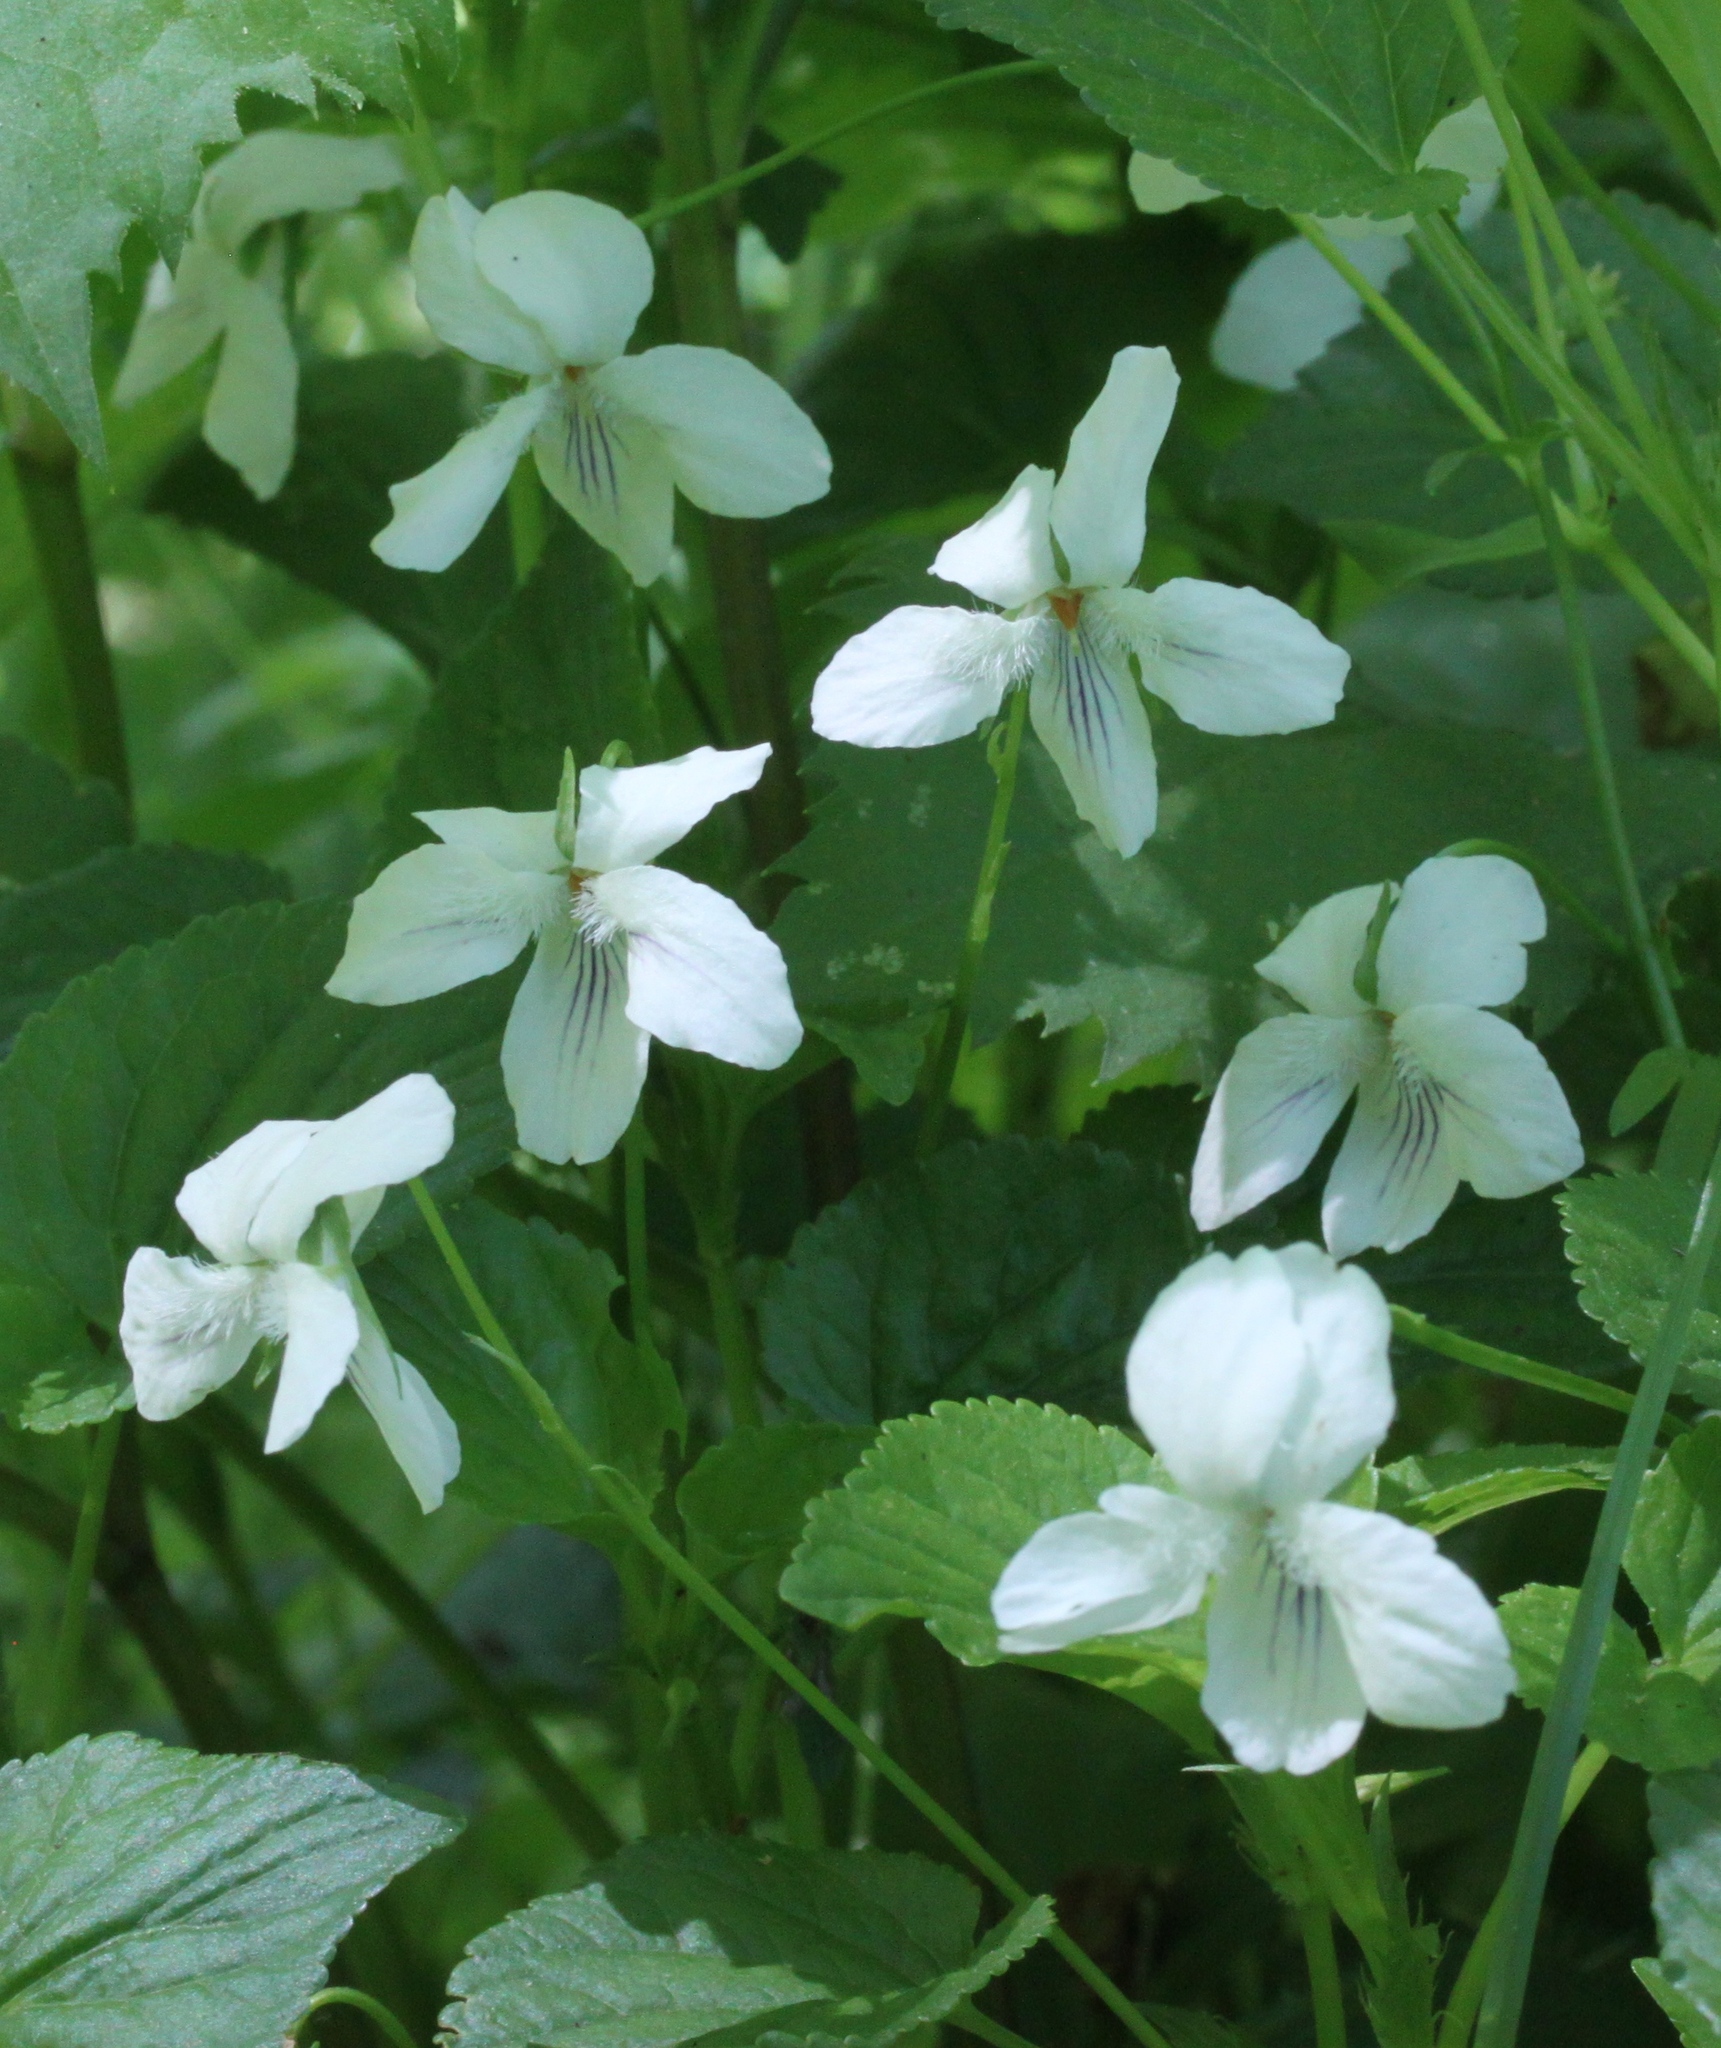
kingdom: Plantae
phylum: Tracheophyta
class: Magnoliopsida
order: Malpighiales
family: Violaceae
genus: Viola
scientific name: Viola striata
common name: Cream violet
